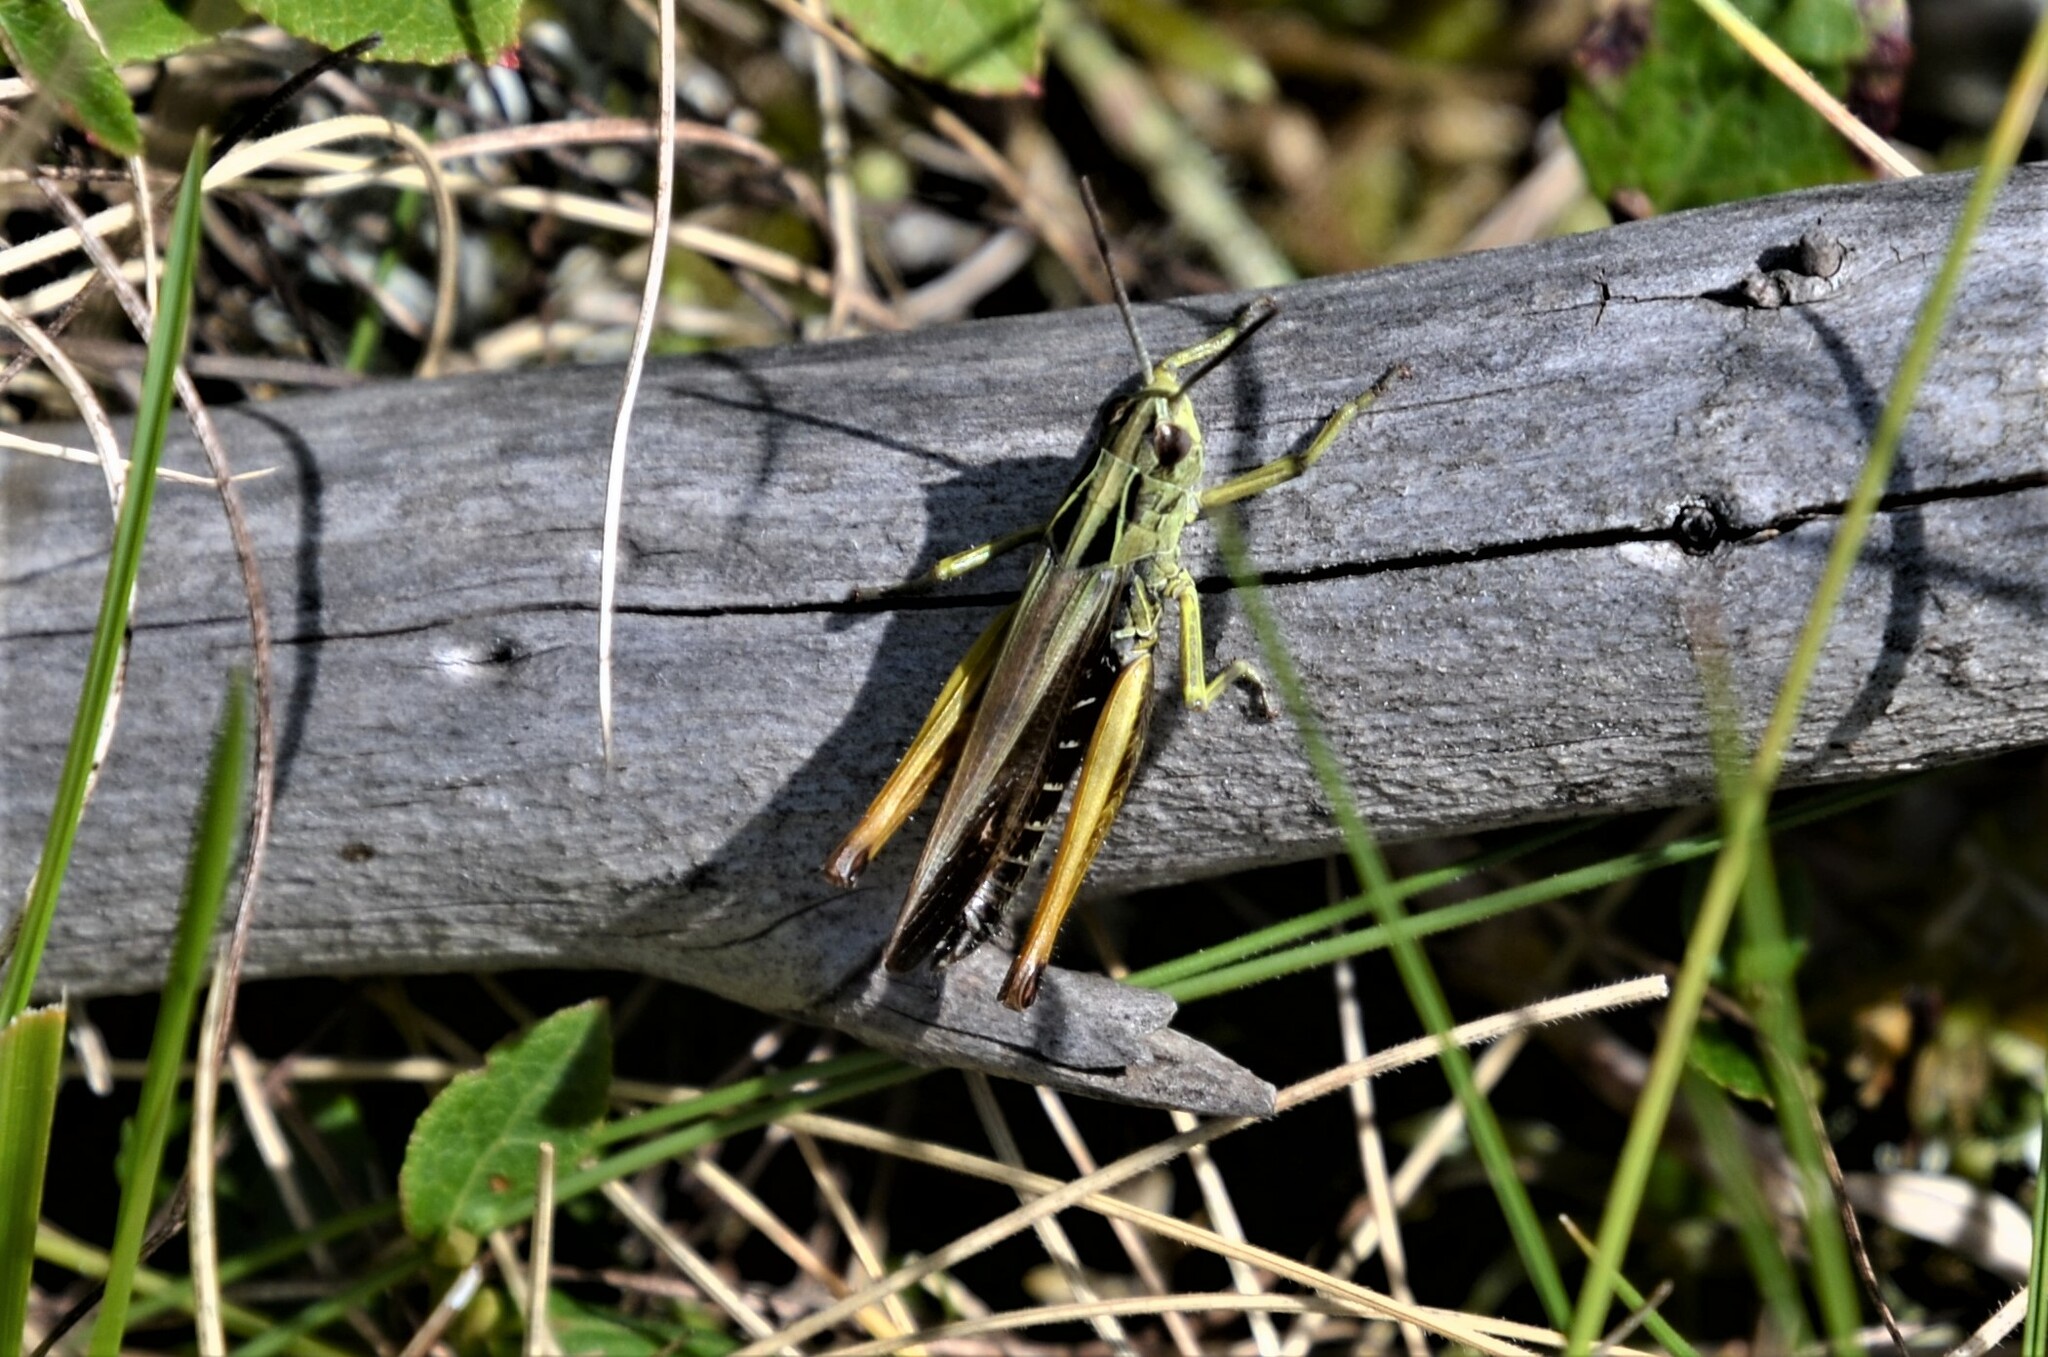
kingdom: Animalia
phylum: Arthropoda
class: Insecta
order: Orthoptera
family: Acrididae
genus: Omocestus
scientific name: Omocestus viridulus
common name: Common green grasshopper
